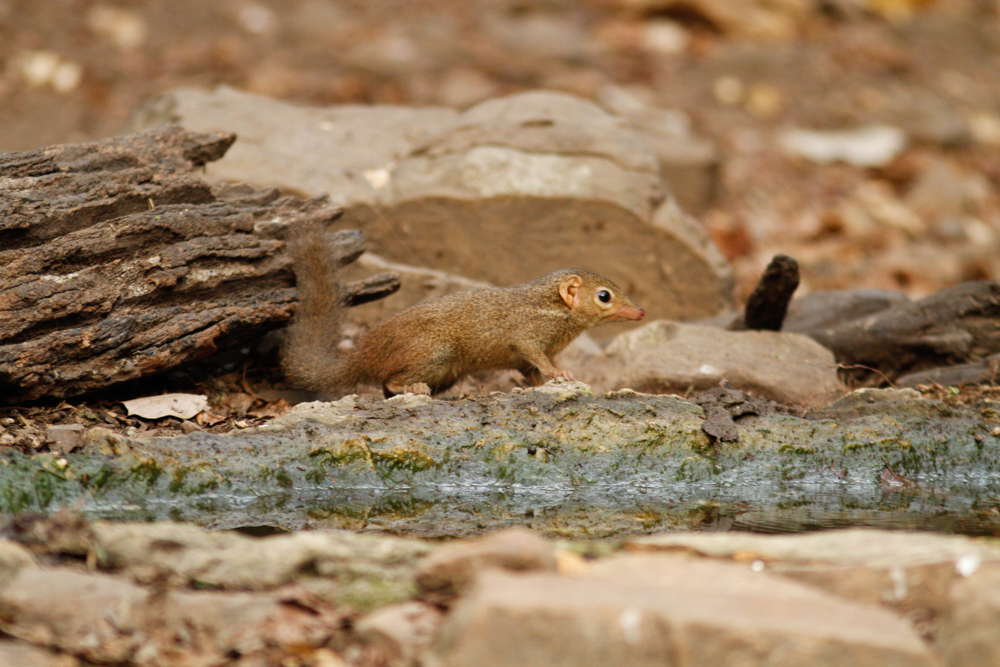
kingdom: Animalia
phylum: Chordata
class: Mammalia
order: Scandentia
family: Tupaiidae
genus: Tupaia
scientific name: Tupaia belangeri
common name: Northern treeshrew
